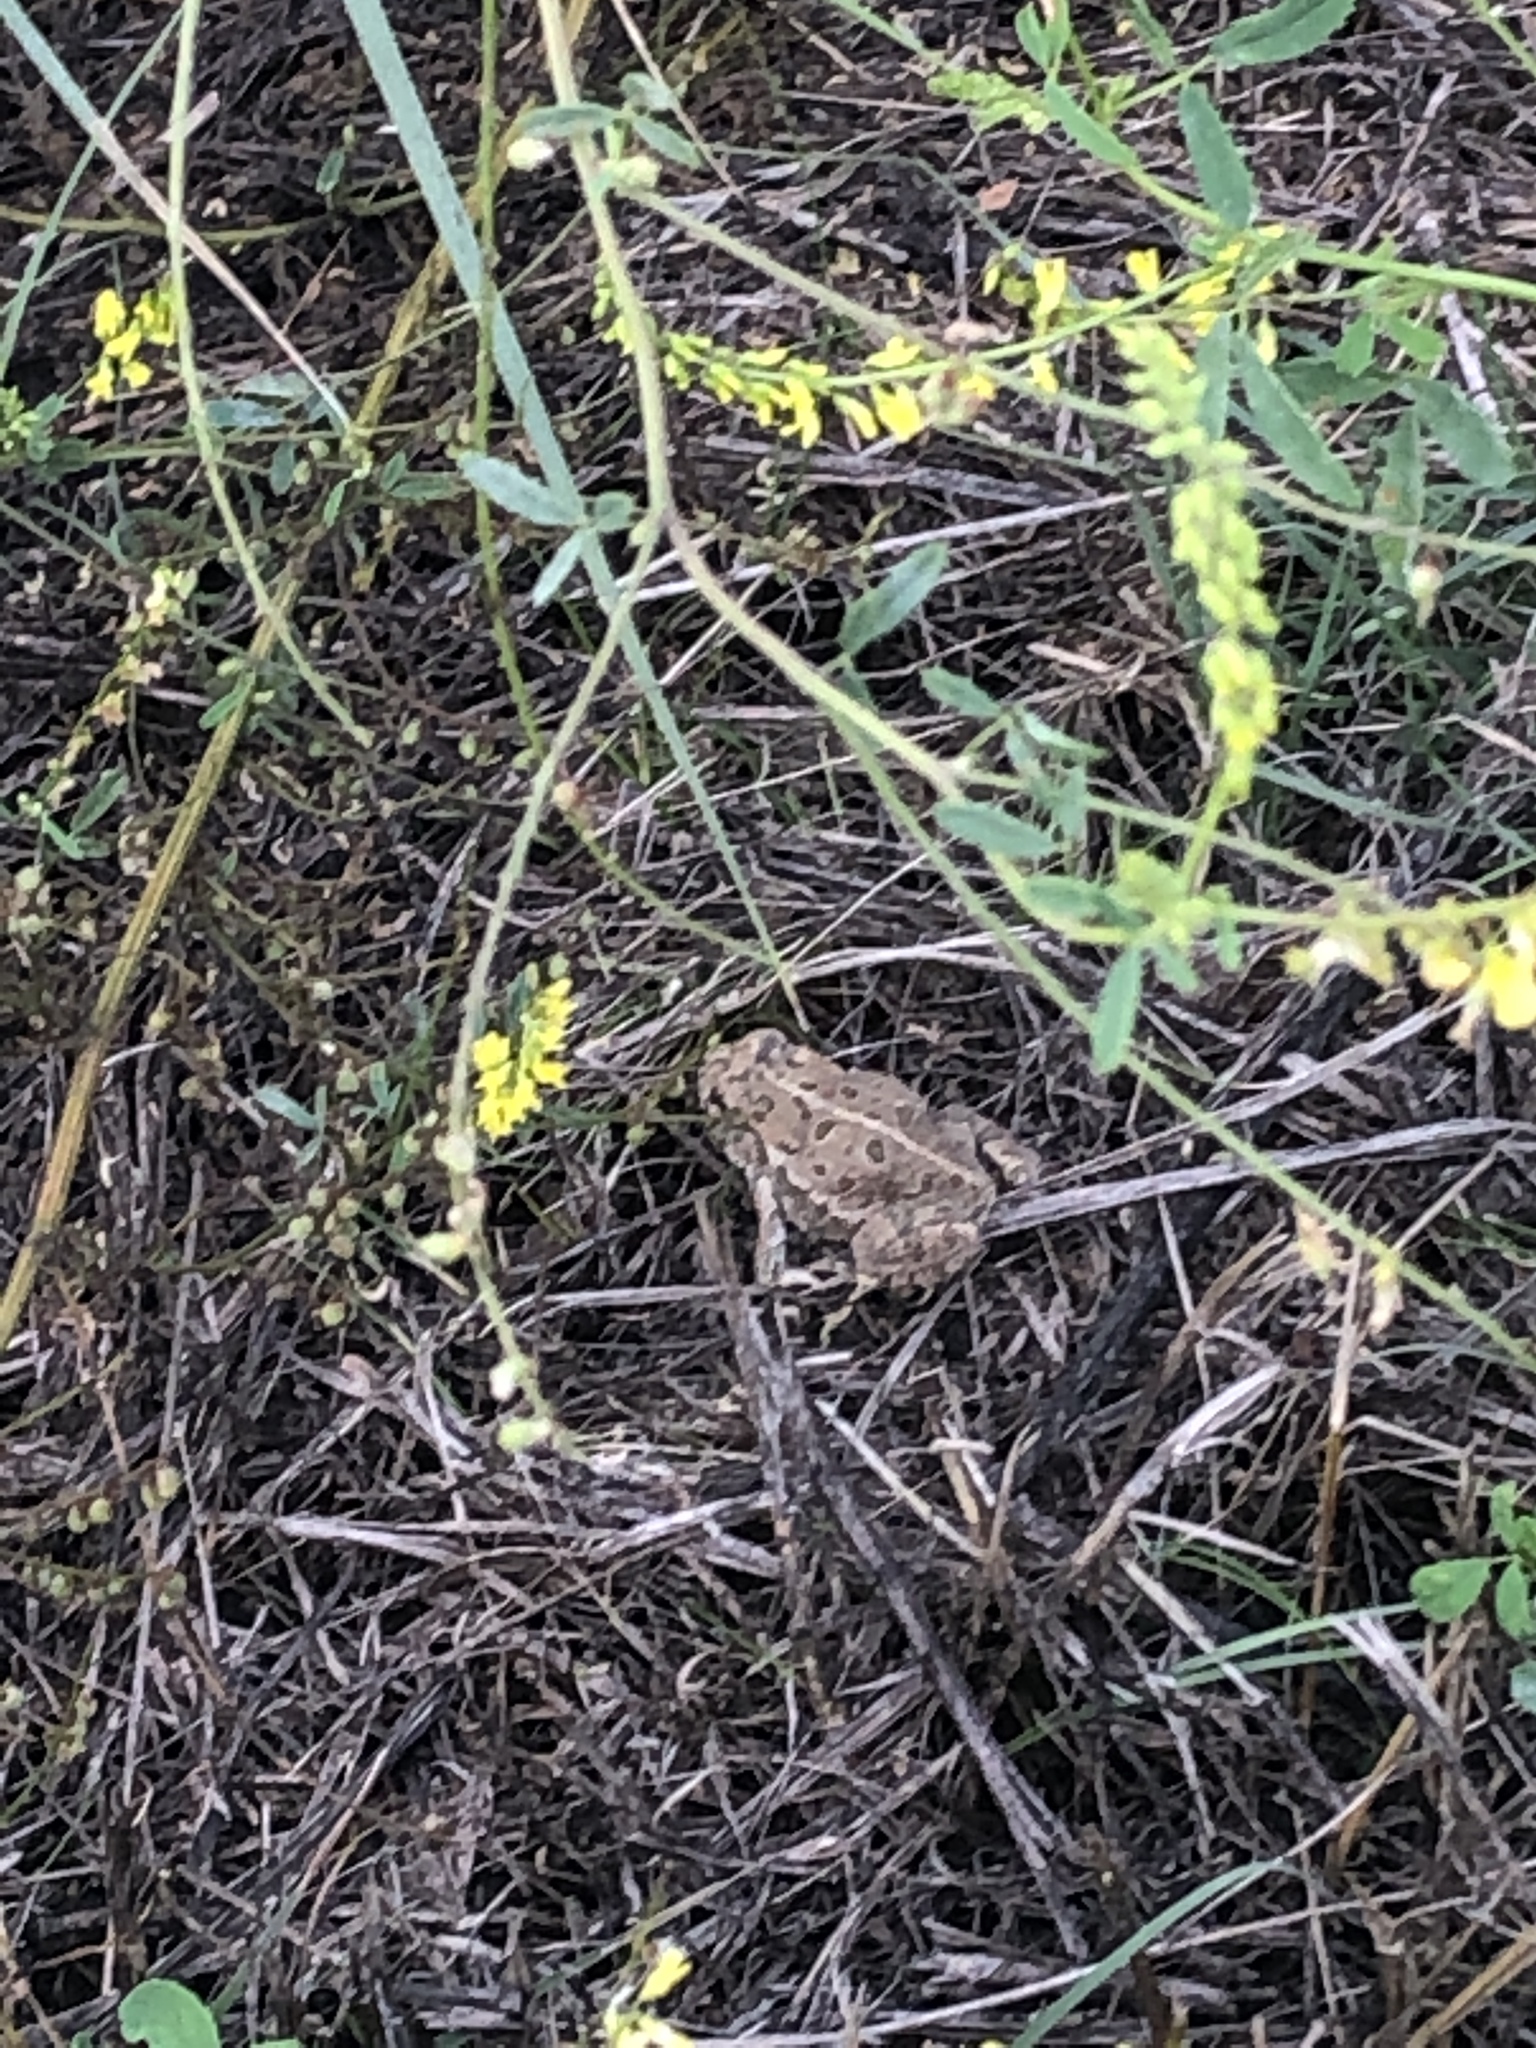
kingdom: Animalia
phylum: Chordata
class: Amphibia
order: Anura
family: Bufonidae
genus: Anaxyrus
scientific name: Anaxyrus woodhousii
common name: Woodhouse's toad
